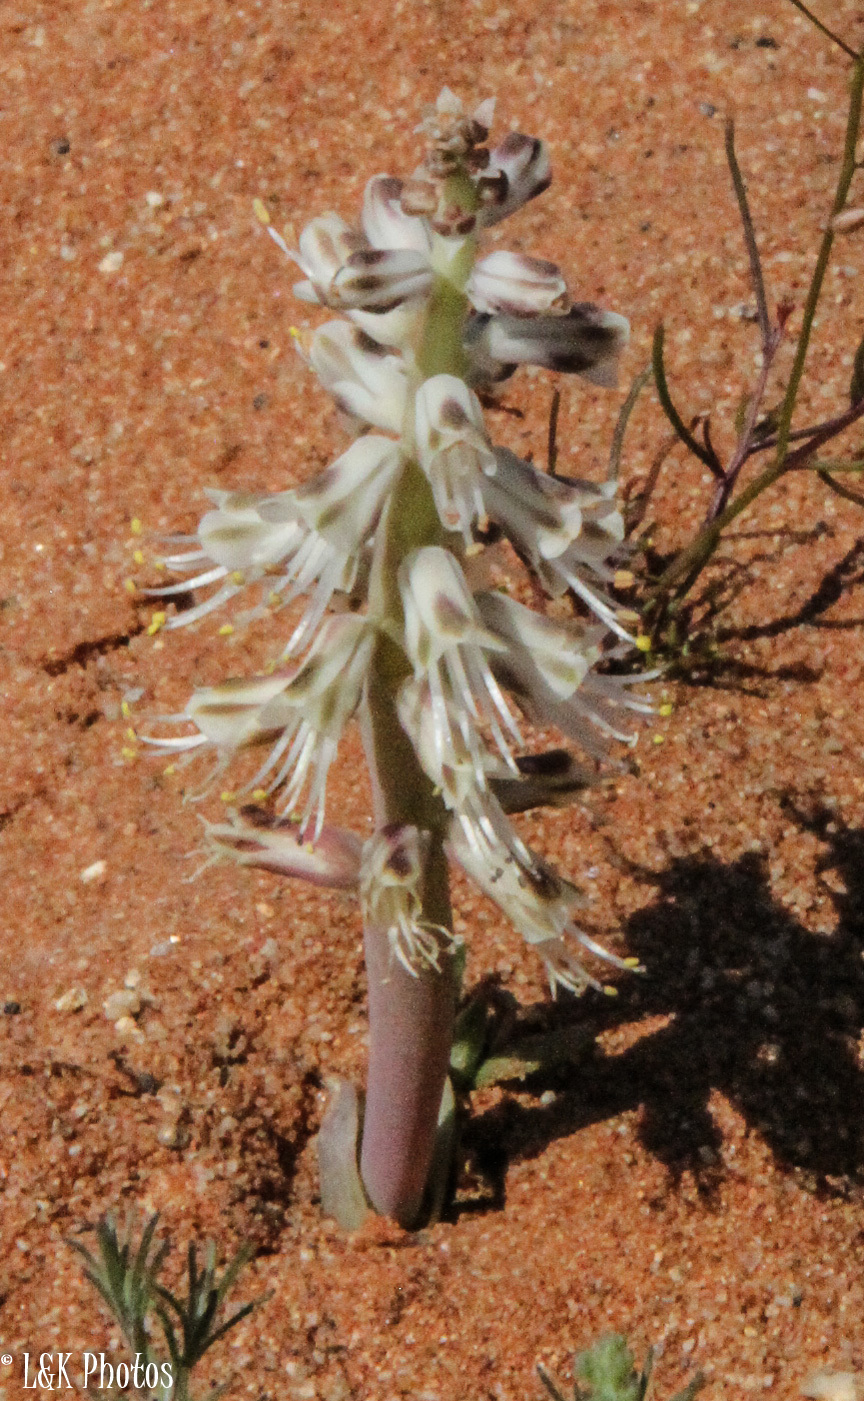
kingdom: Plantae
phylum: Tracheophyta
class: Liliopsida
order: Asparagales
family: Asparagaceae
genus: Lachenalia
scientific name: Lachenalia xerophila
